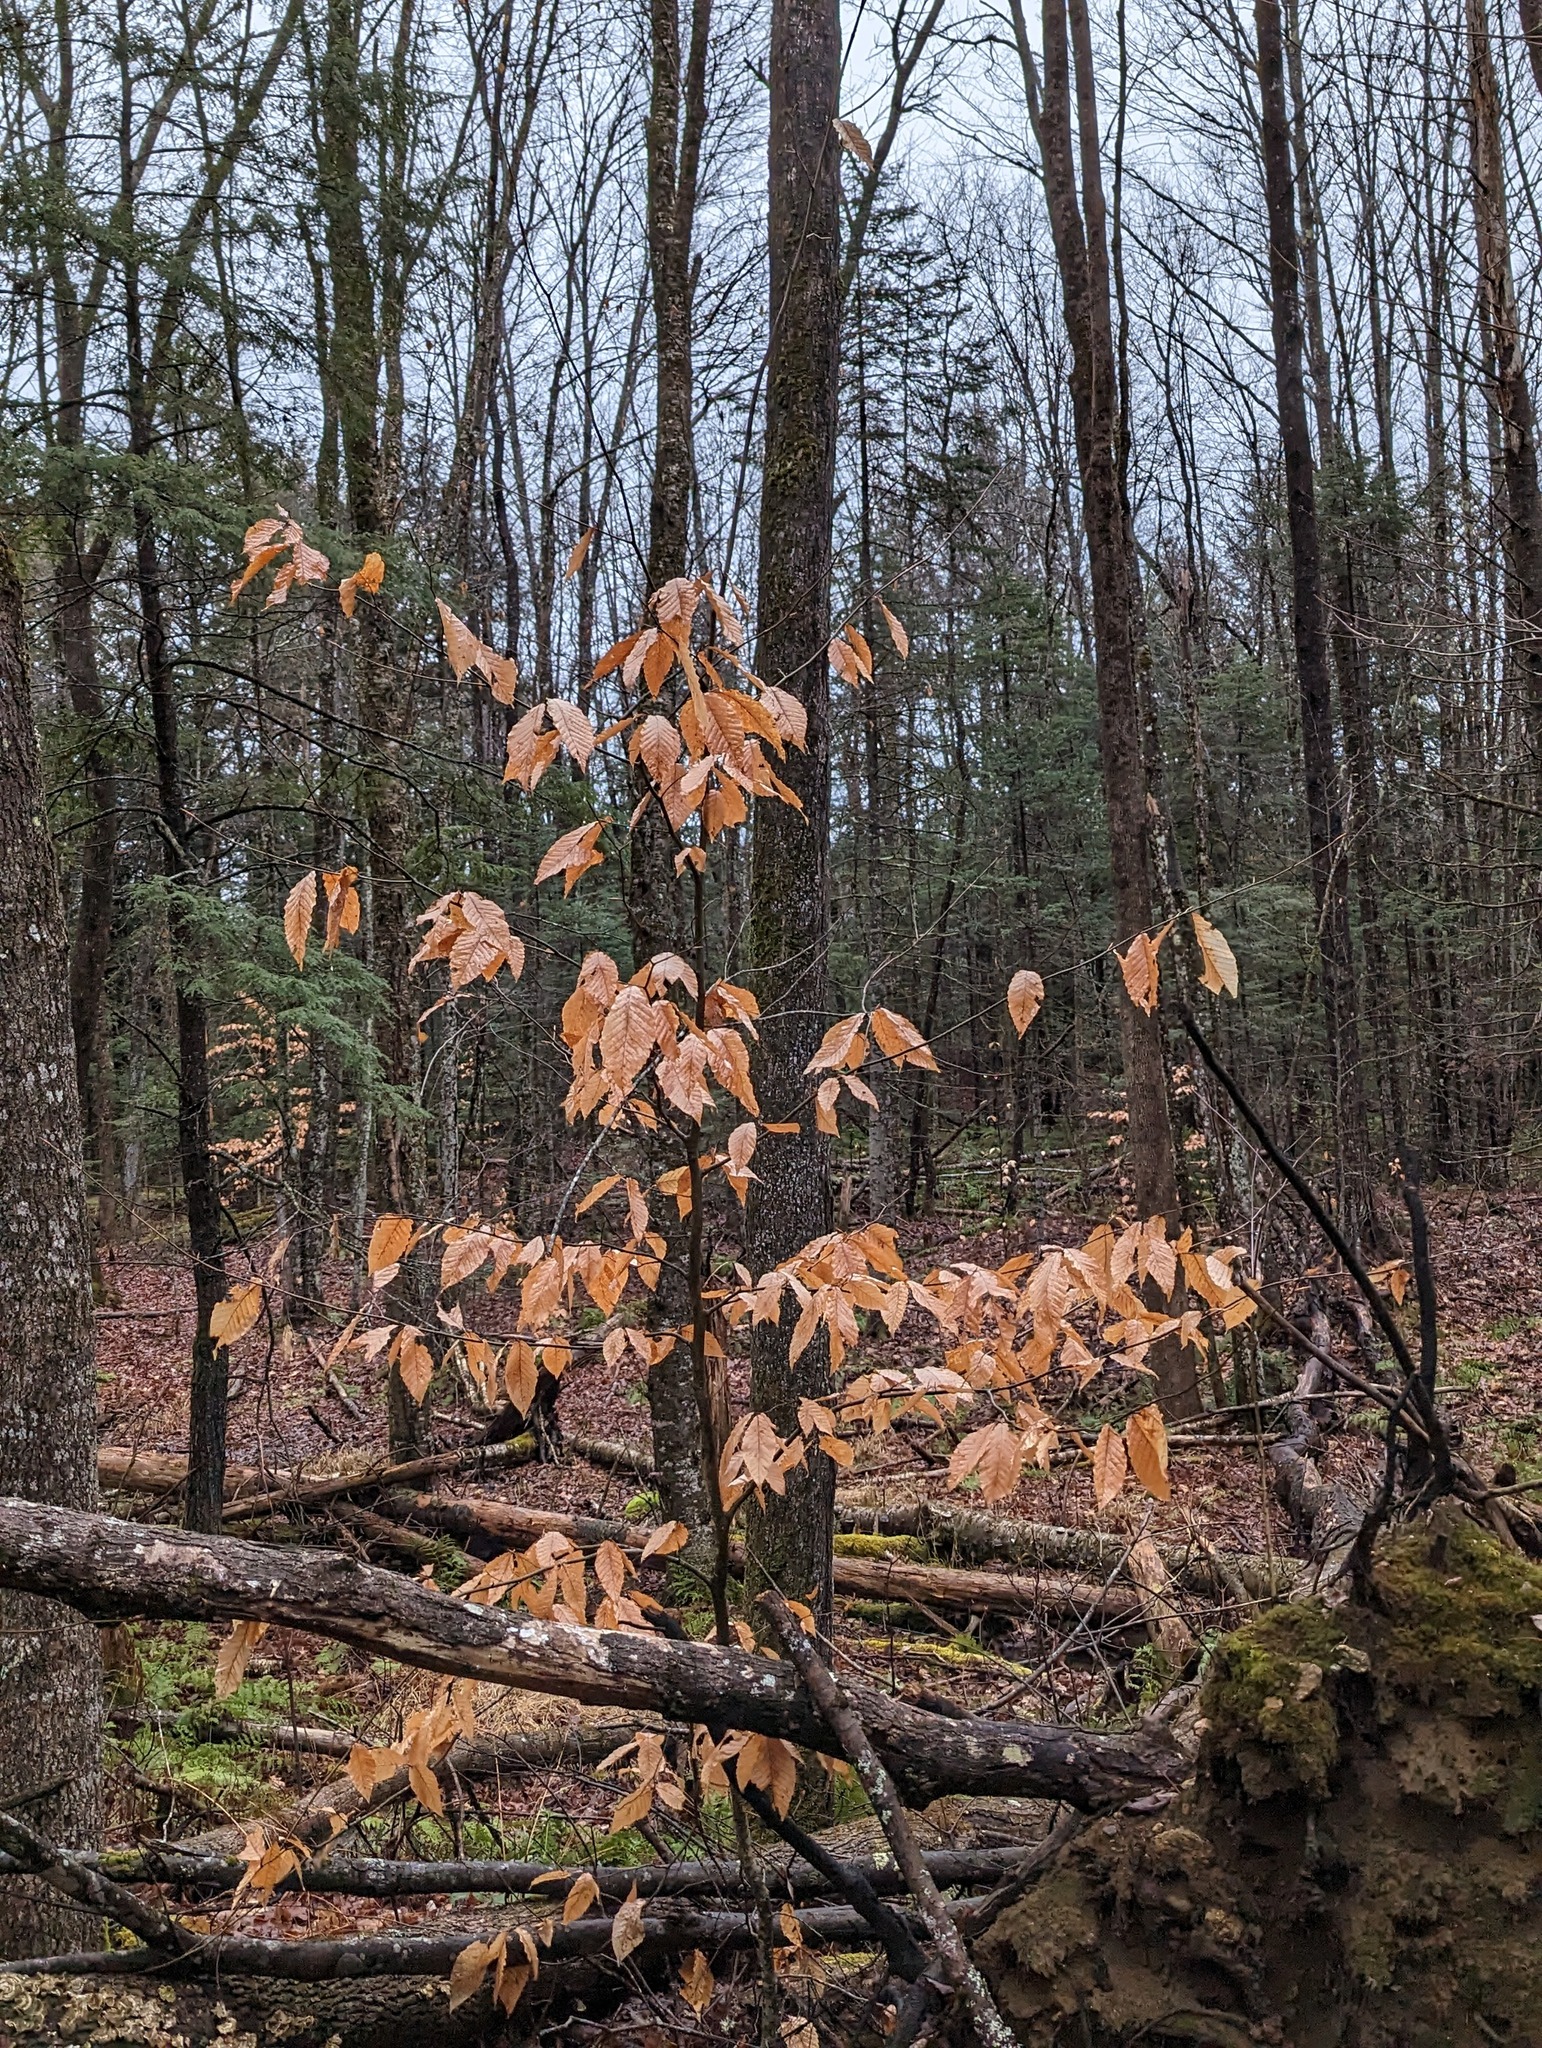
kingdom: Plantae
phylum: Tracheophyta
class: Magnoliopsida
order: Fagales
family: Fagaceae
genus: Fagus
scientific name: Fagus grandifolia
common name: American beech
